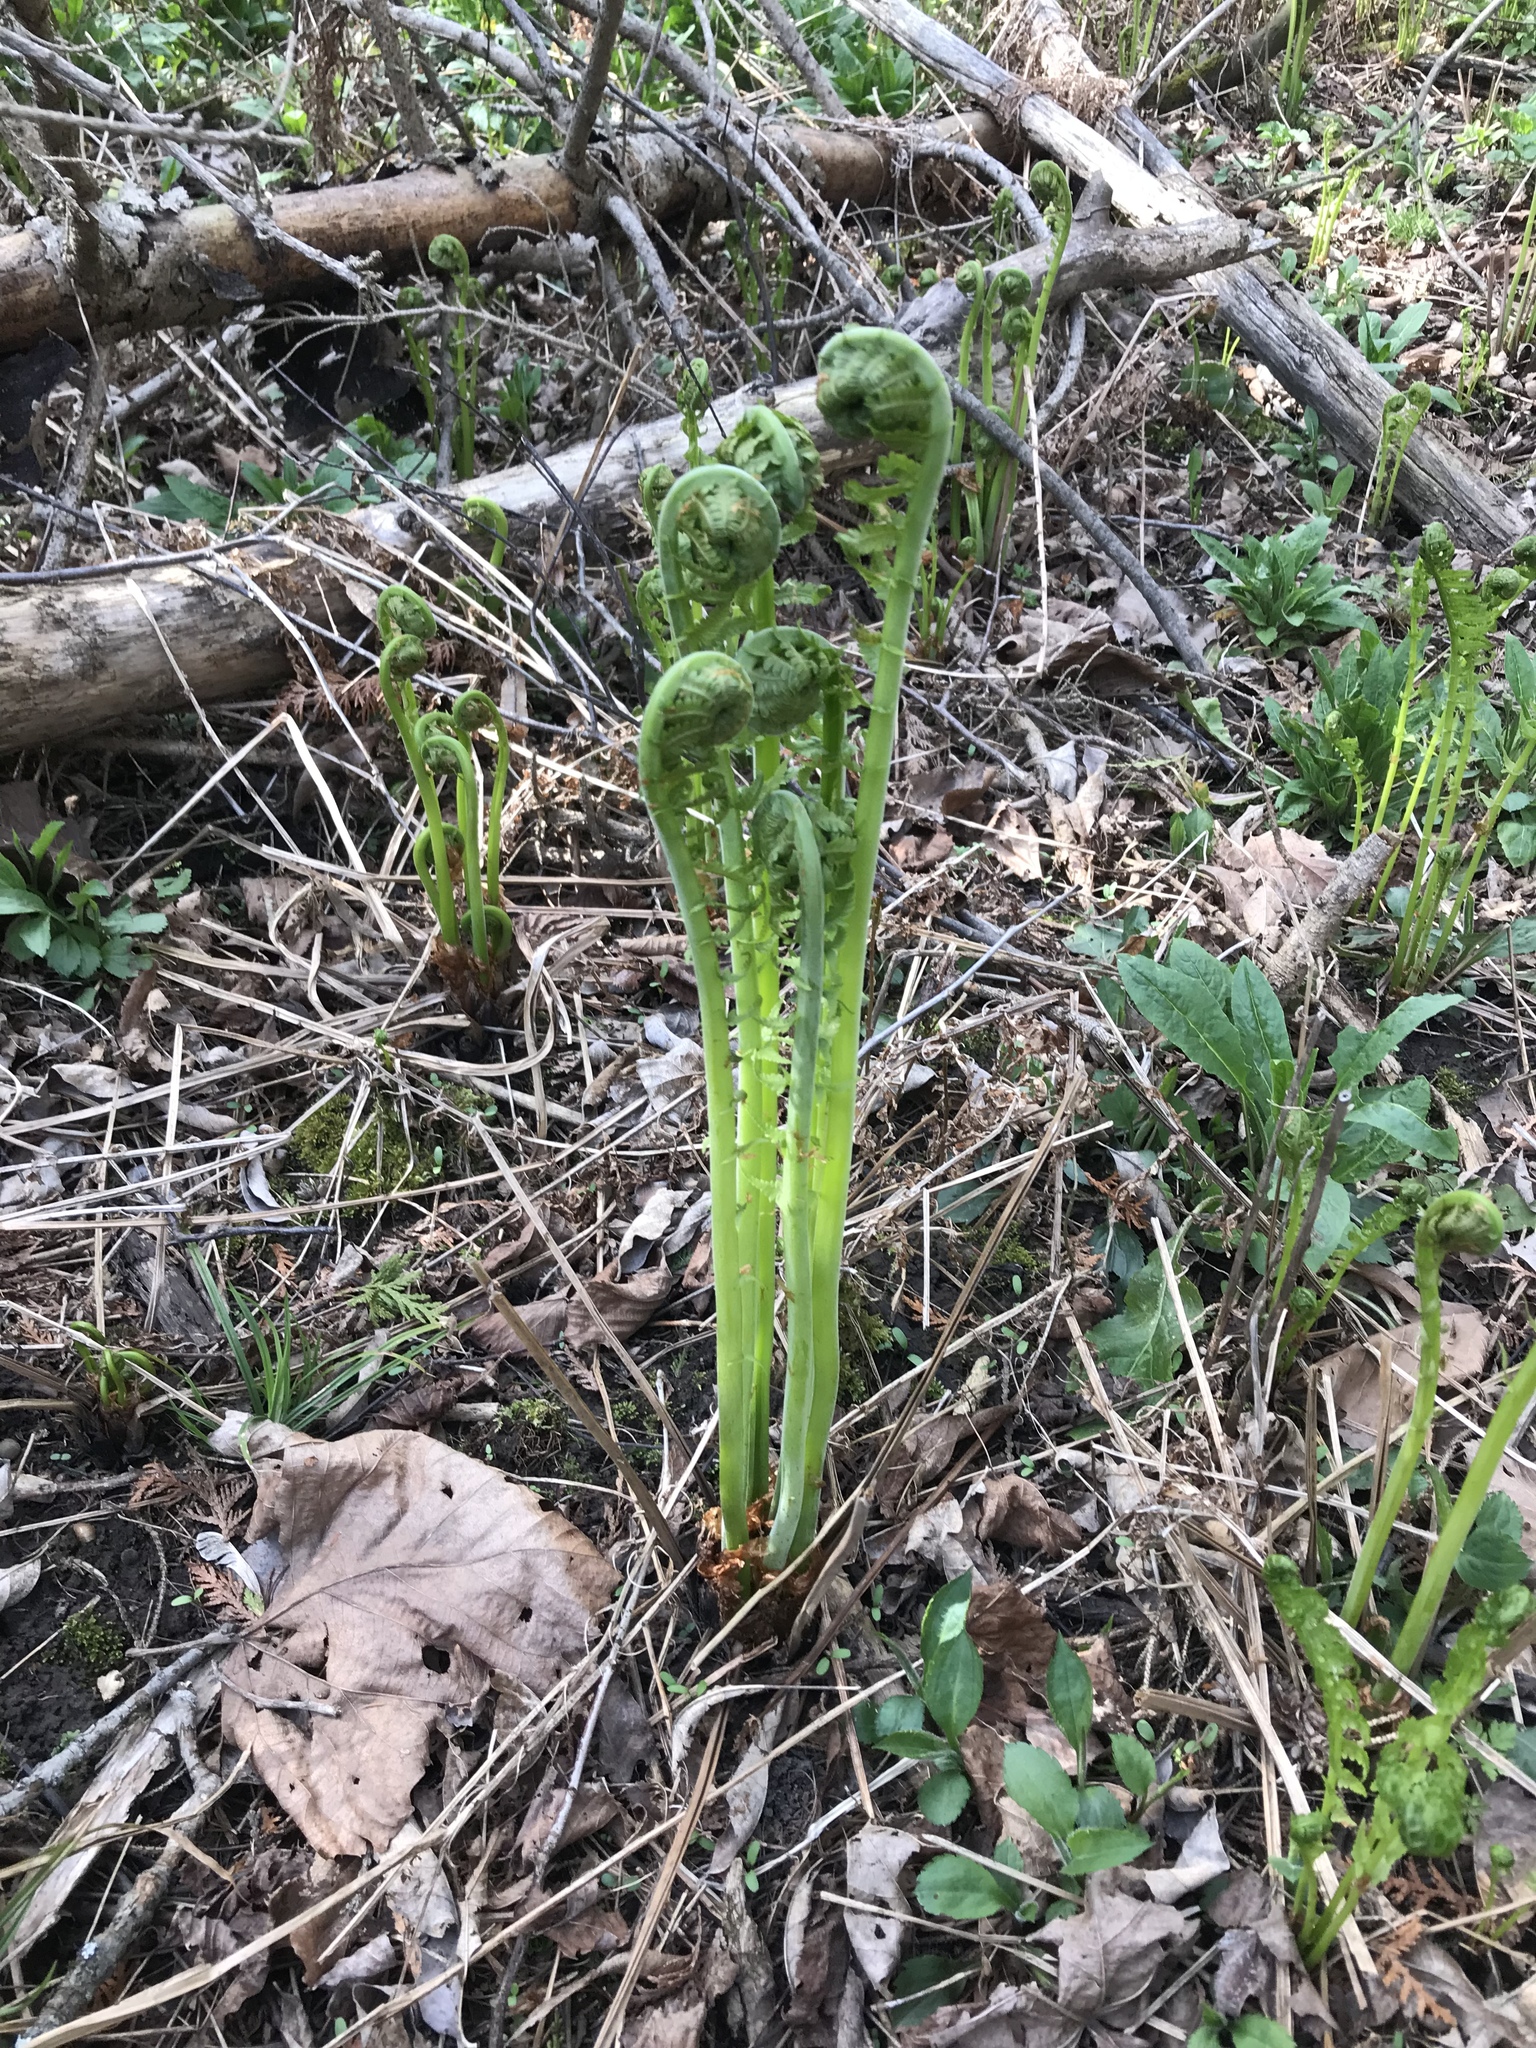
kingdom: Plantae
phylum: Tracheophyta
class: Polypodiopsida
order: Polypodiales
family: Onocleaceae
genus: Matteuccia
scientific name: Matteuccia struthiopteris
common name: Ostrich fern
